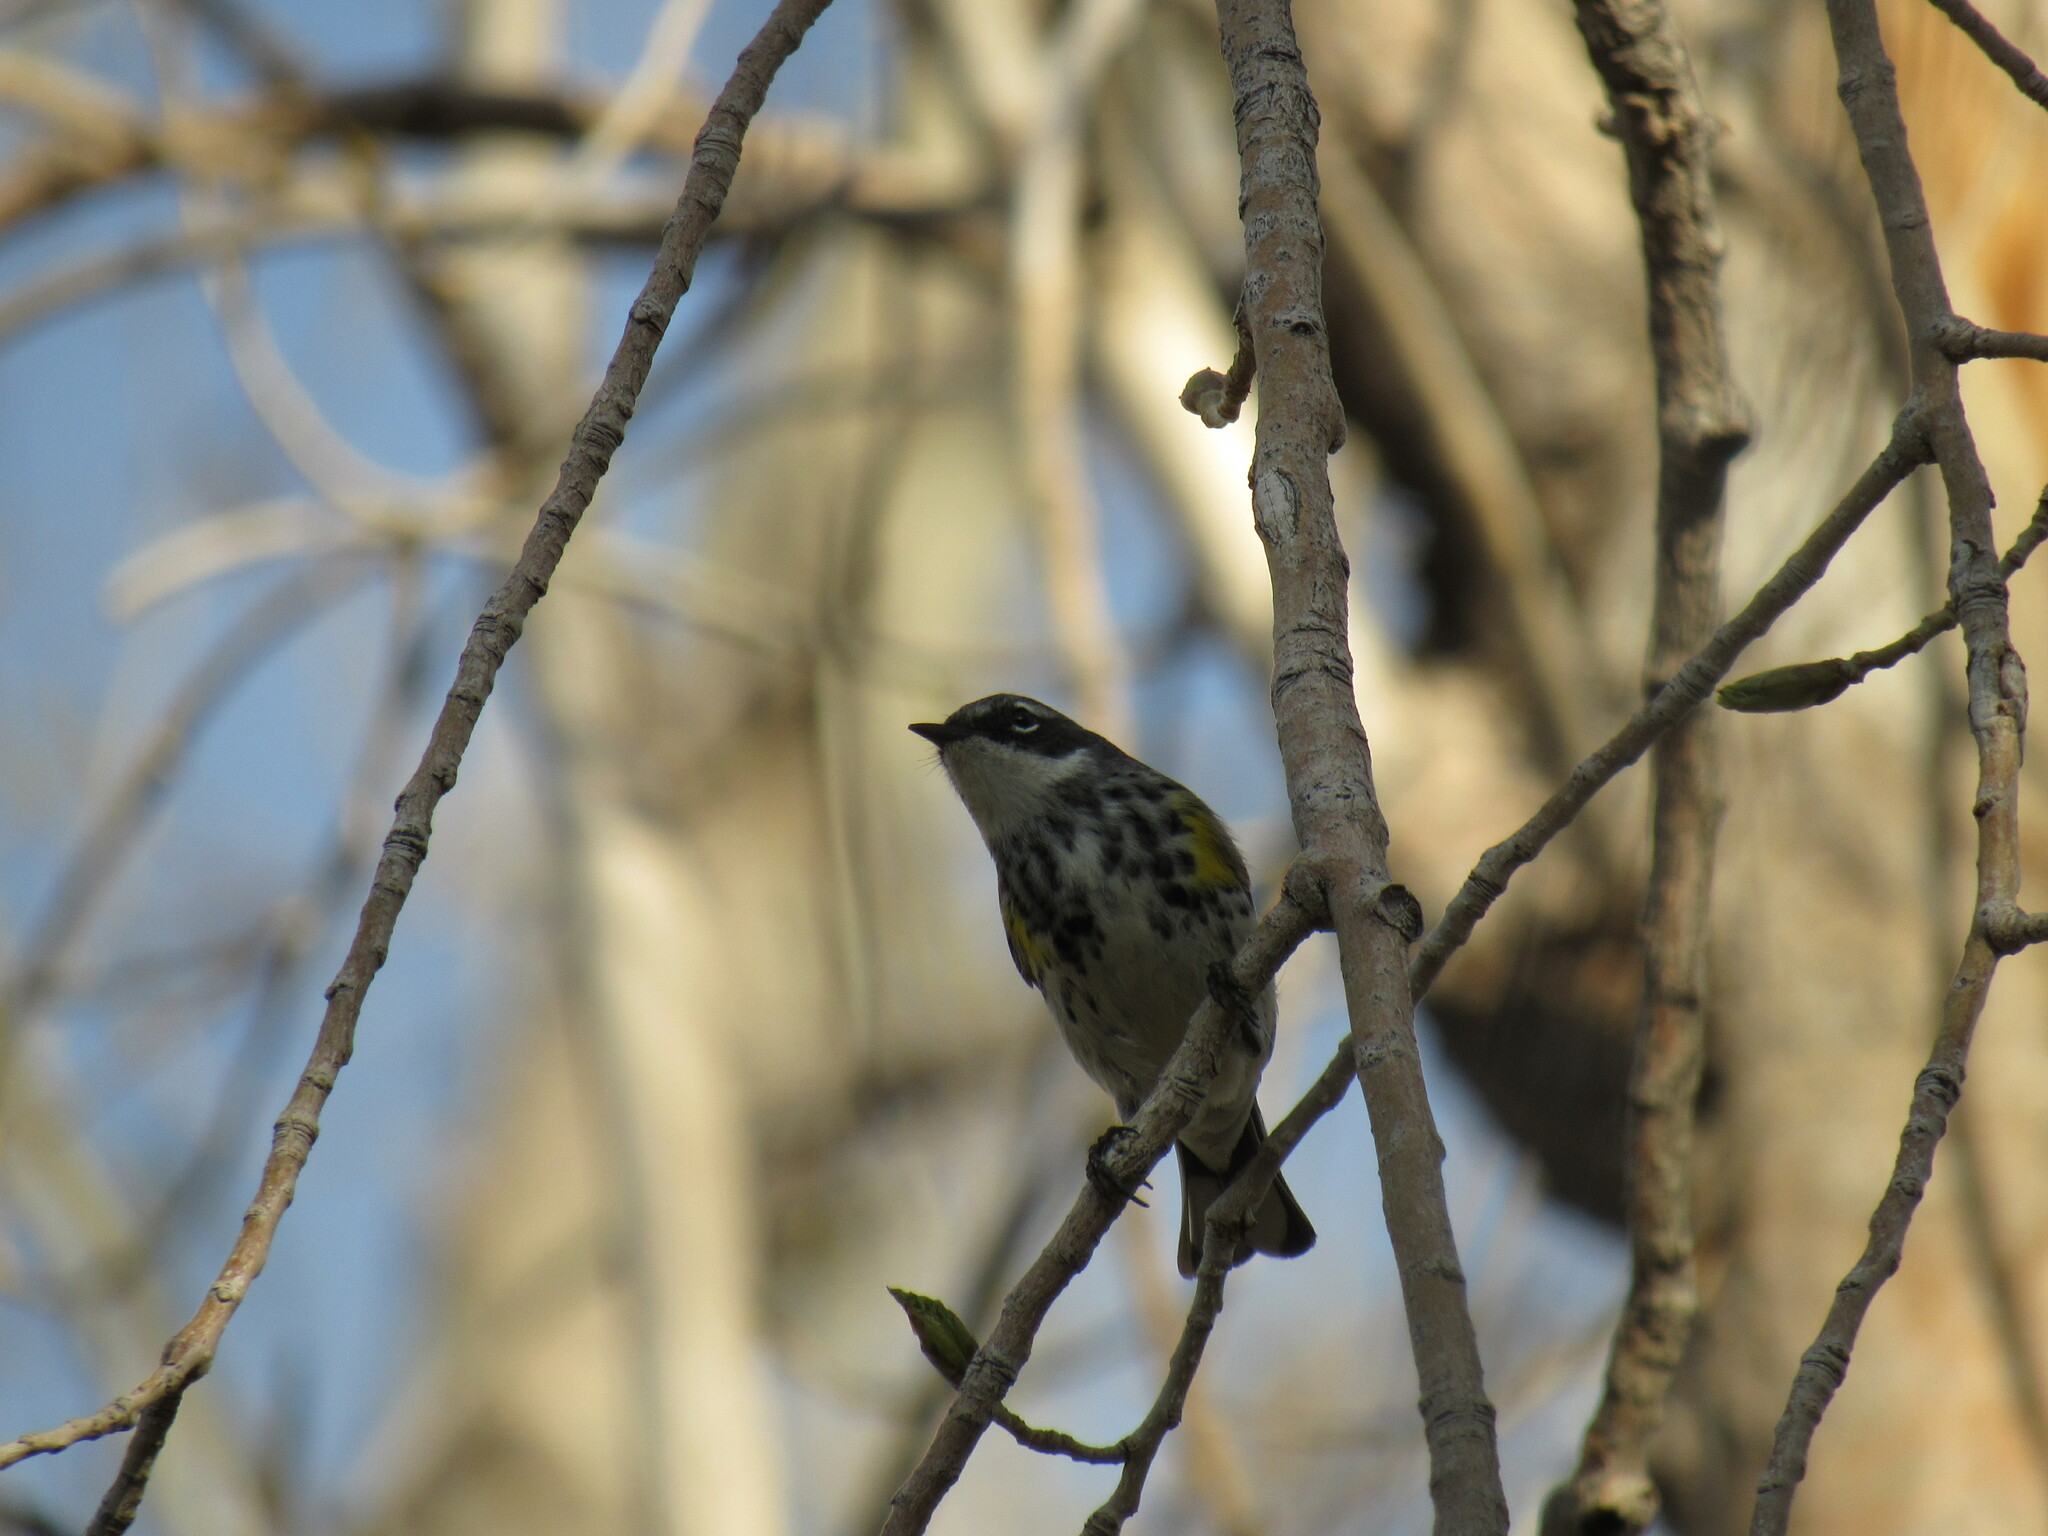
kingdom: Animalia
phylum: Chordata
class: Aves
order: Passeriformes
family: Parulidae
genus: Setophaga
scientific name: Setophaga coronata
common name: Myrtle warbler
